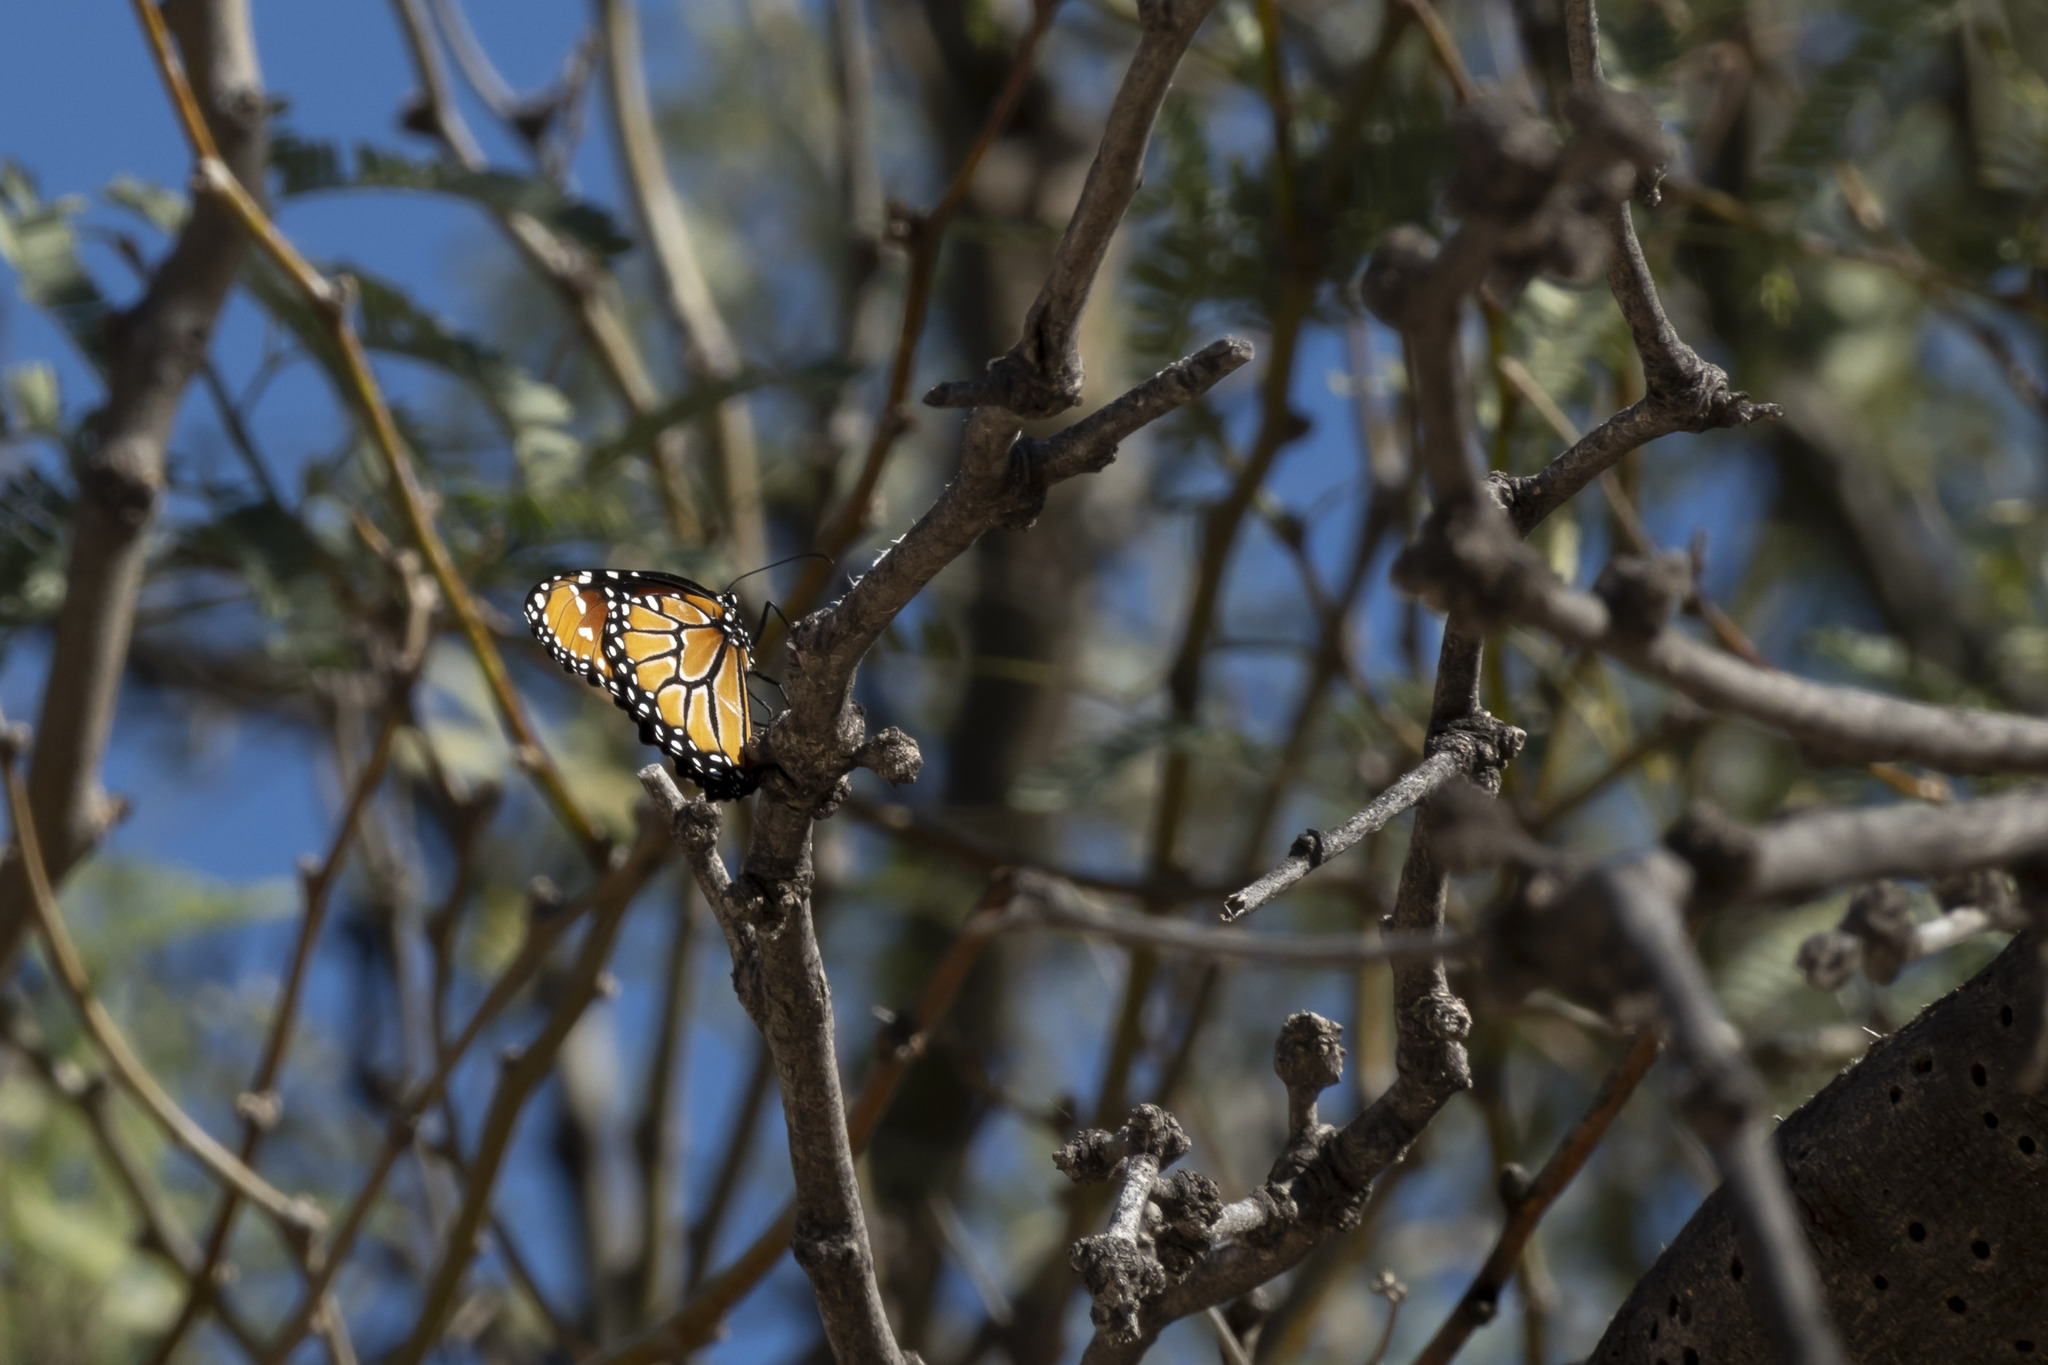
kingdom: Animalia
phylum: Arthropoda
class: Insecta
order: Lepidoptera
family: Nymphalidae
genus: Danaus
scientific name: Danaus gilippus
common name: Queen
